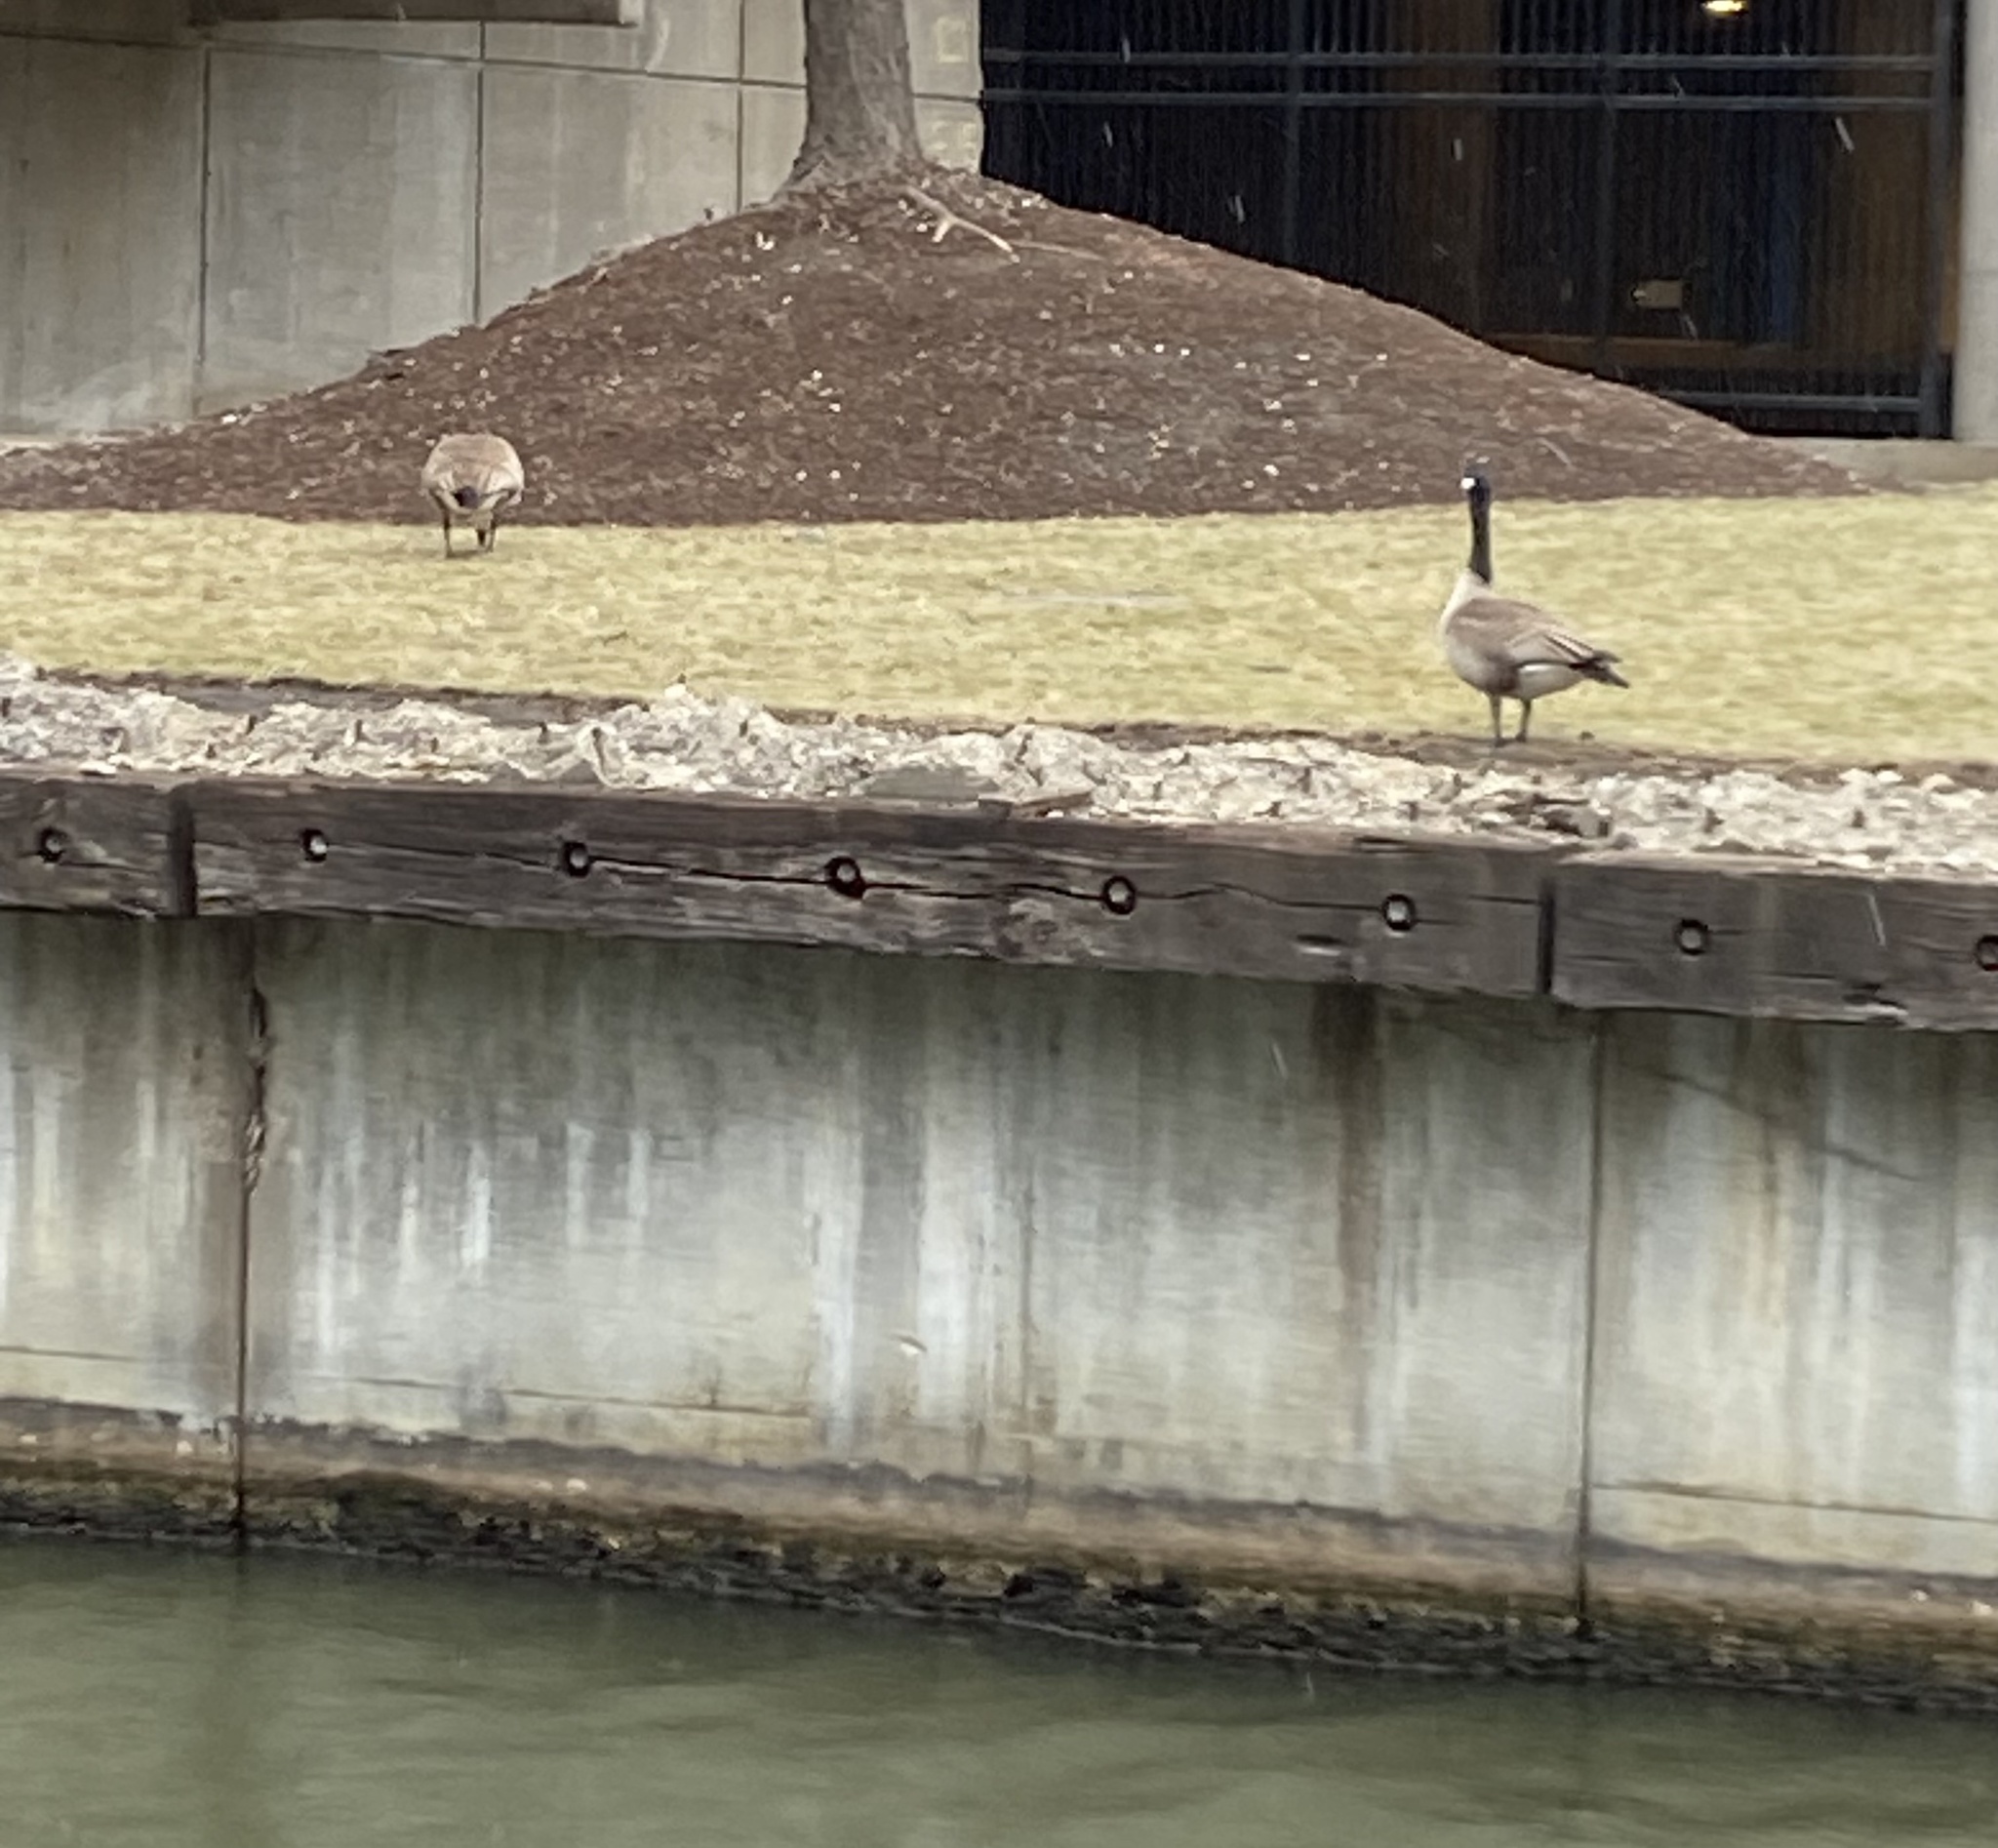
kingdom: Animalia
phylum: Chordata
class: Aves
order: Anseriformes
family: Anatidae
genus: Branta
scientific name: Branta canadensis
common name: Canada goose
